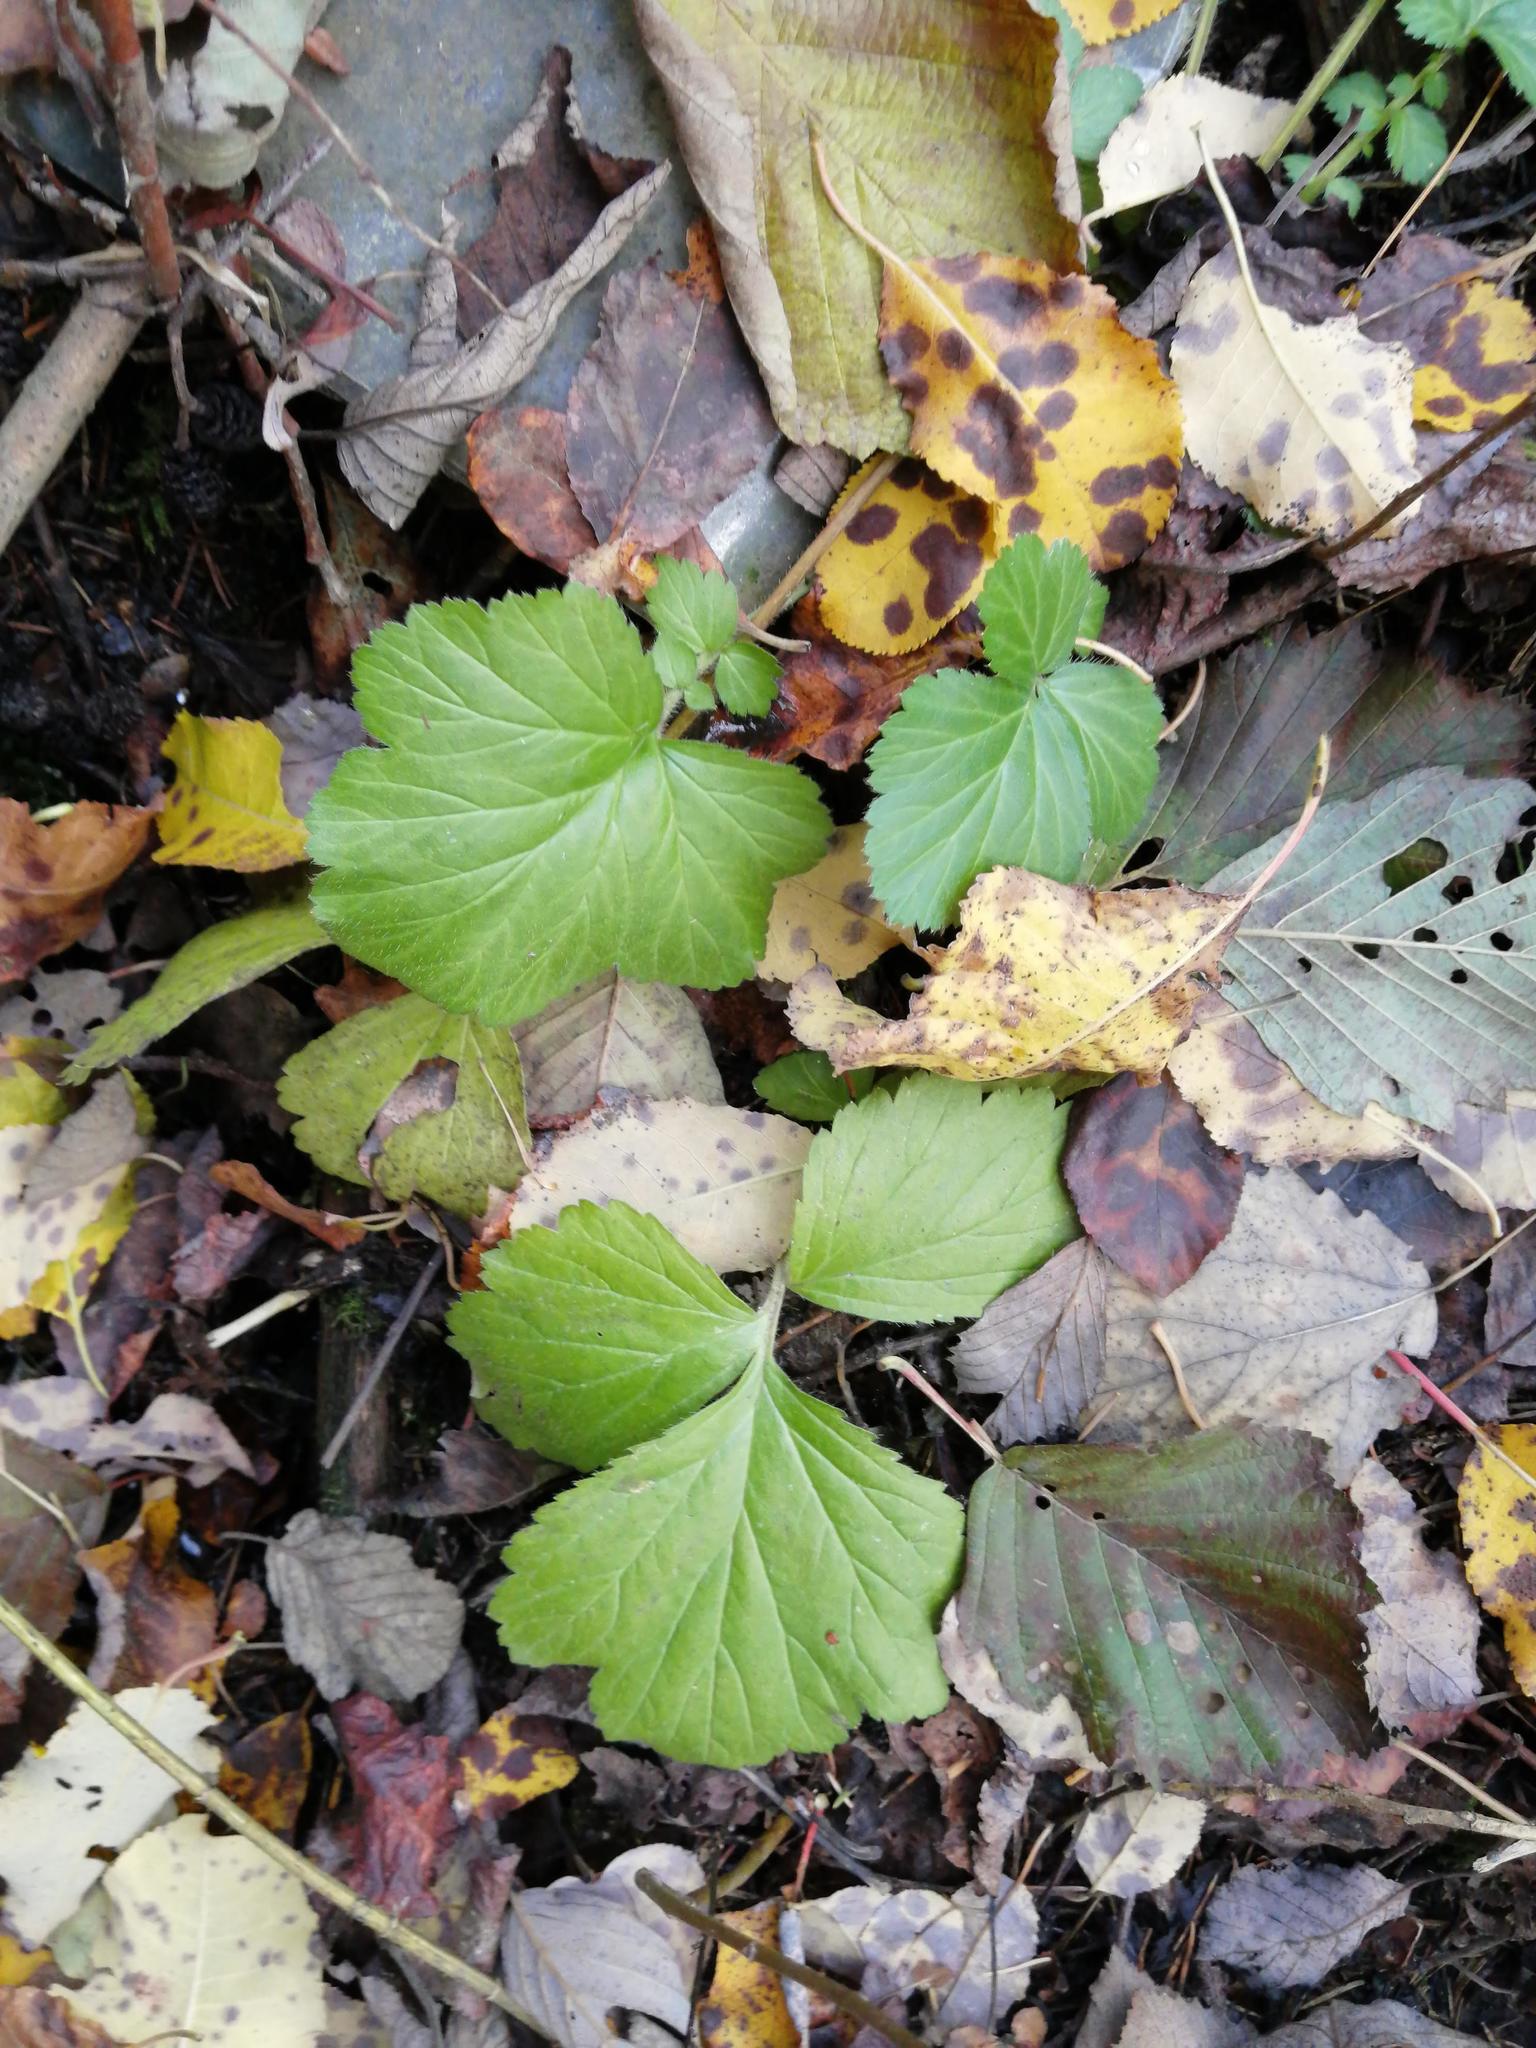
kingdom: Plantae
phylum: Tracheophyta
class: Magnoliopsida
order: Rosales
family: Rosaceae
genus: Geum
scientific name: Geum aleppicum
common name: Yellow avens
